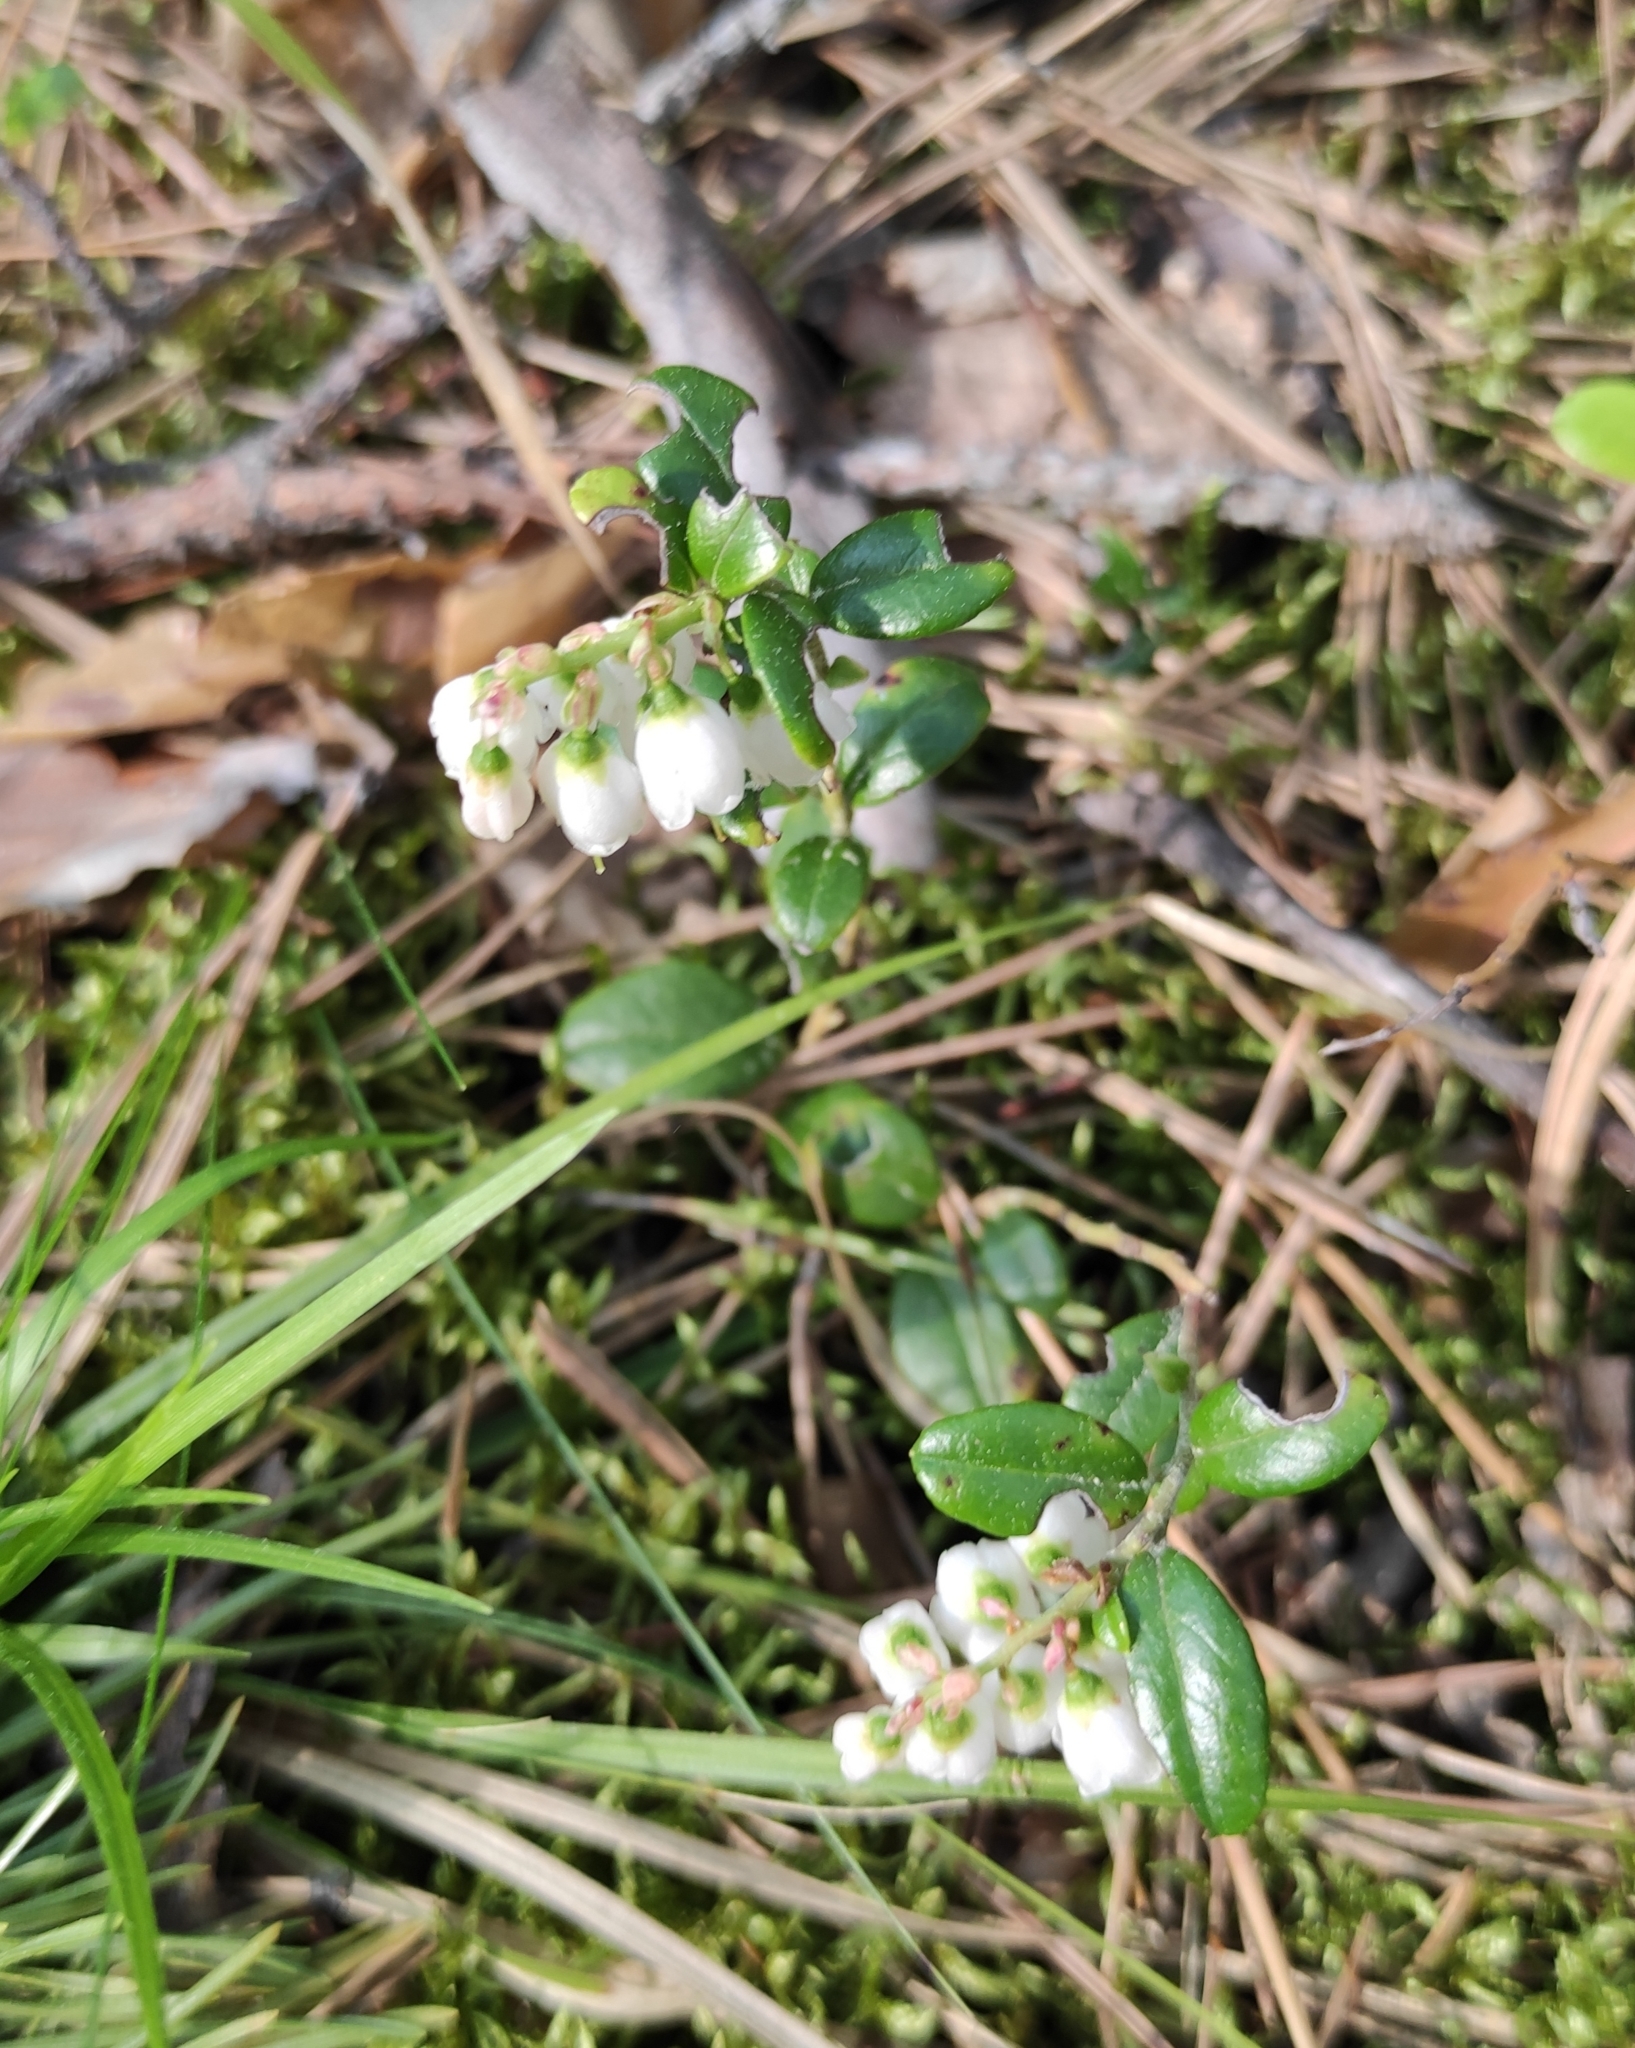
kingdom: Plantae
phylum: Tracheophyta
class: Magnoliopsida
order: Ericales
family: Ericaceae
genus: Vaccinium
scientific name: Vaccinium vitis-idaea
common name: Cowberry
